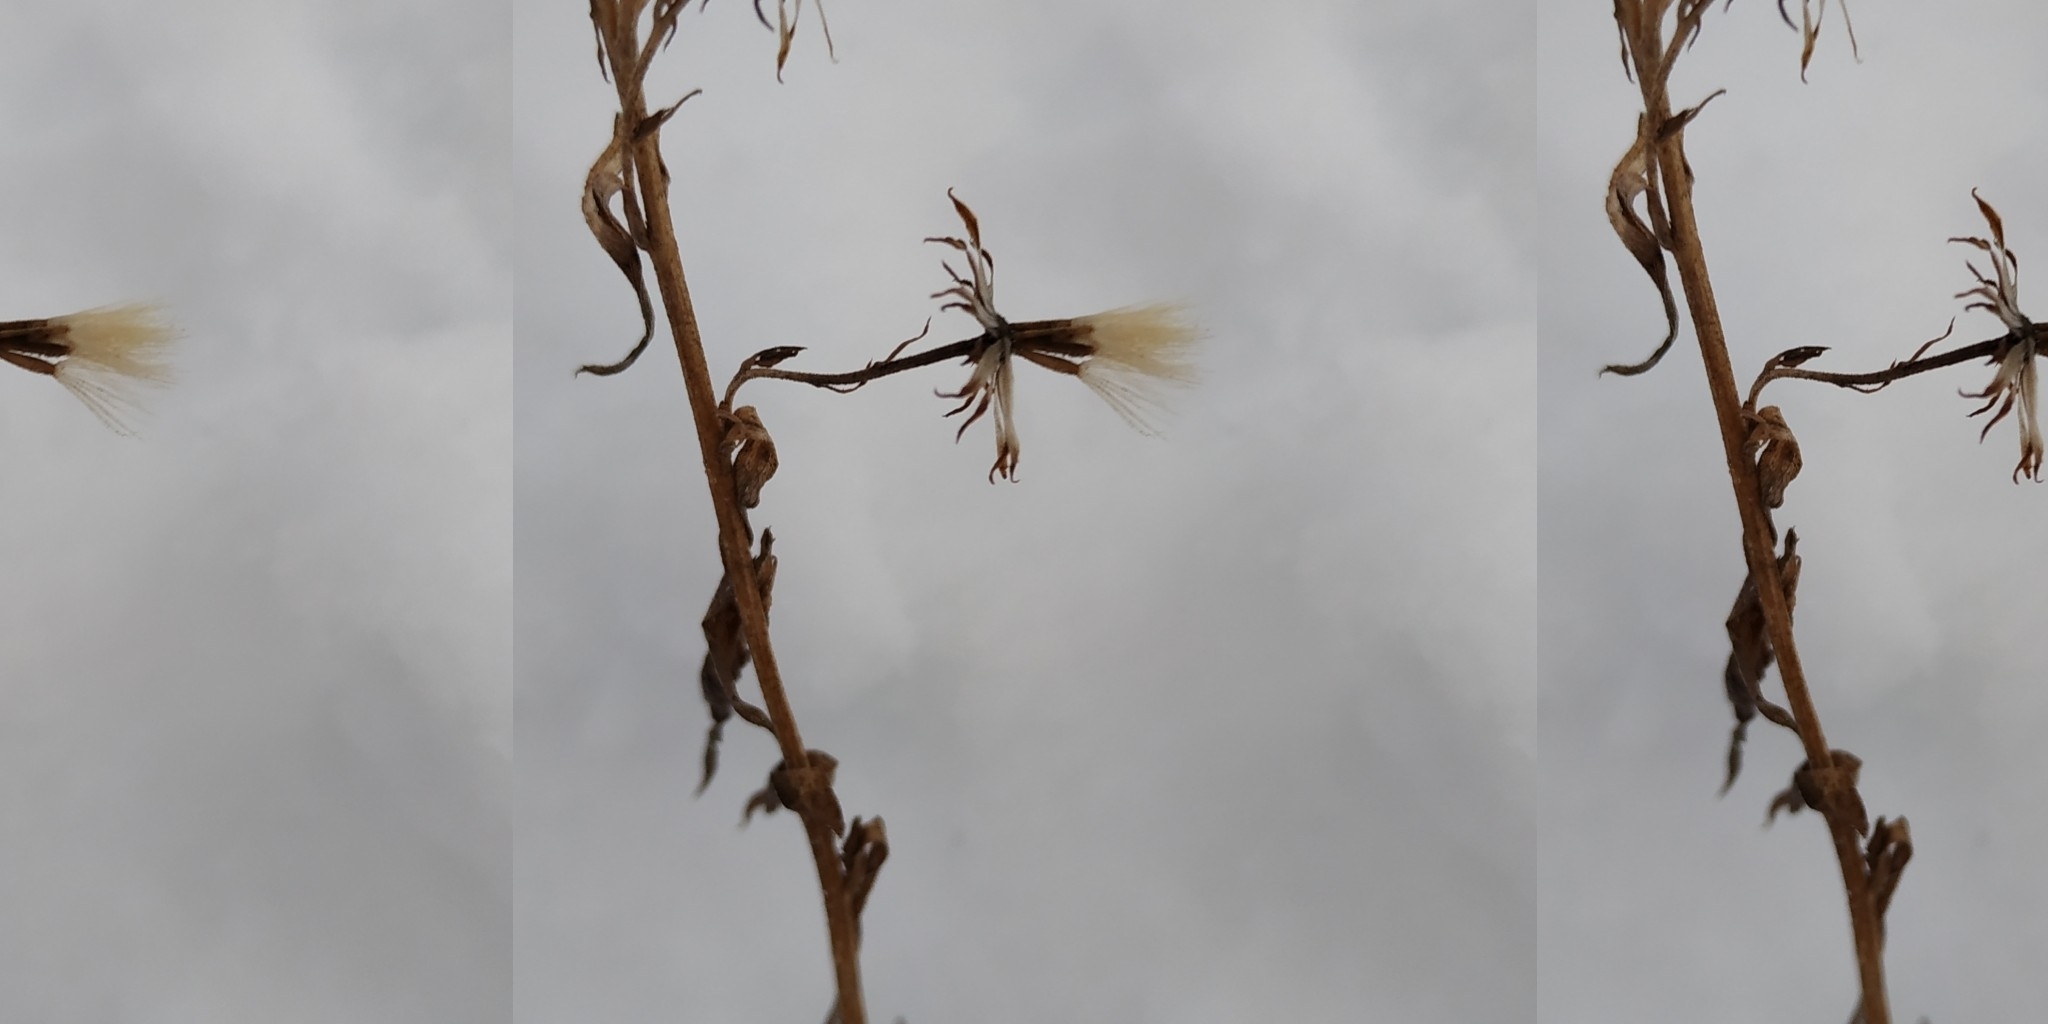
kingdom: Plantae
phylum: Tracheophyta
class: Magnoliopsida
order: Asterales
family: Asteraceae
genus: Solidago
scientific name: Solidago virgaurea
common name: Goldenrod
